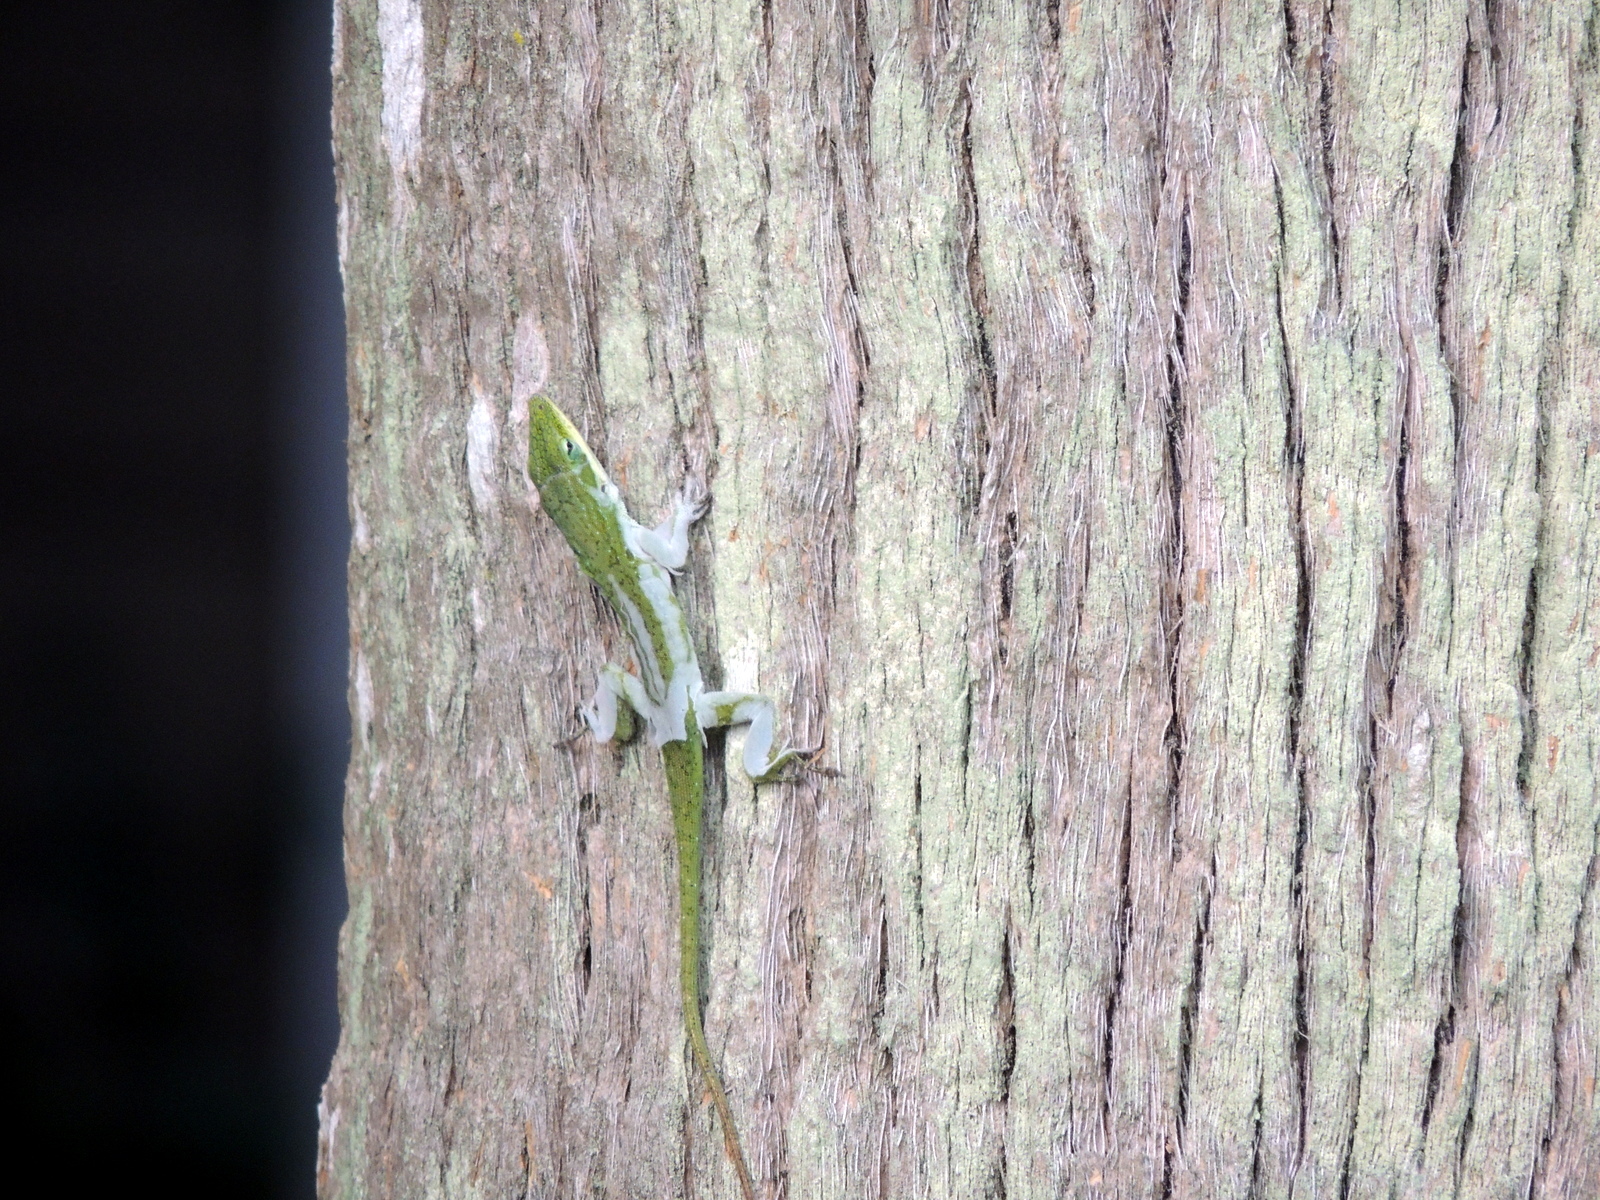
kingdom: Animalia
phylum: Chordata
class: Squamata
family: Dactyloidae
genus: Anolis
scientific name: Anolis carolinensis
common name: Green anole
